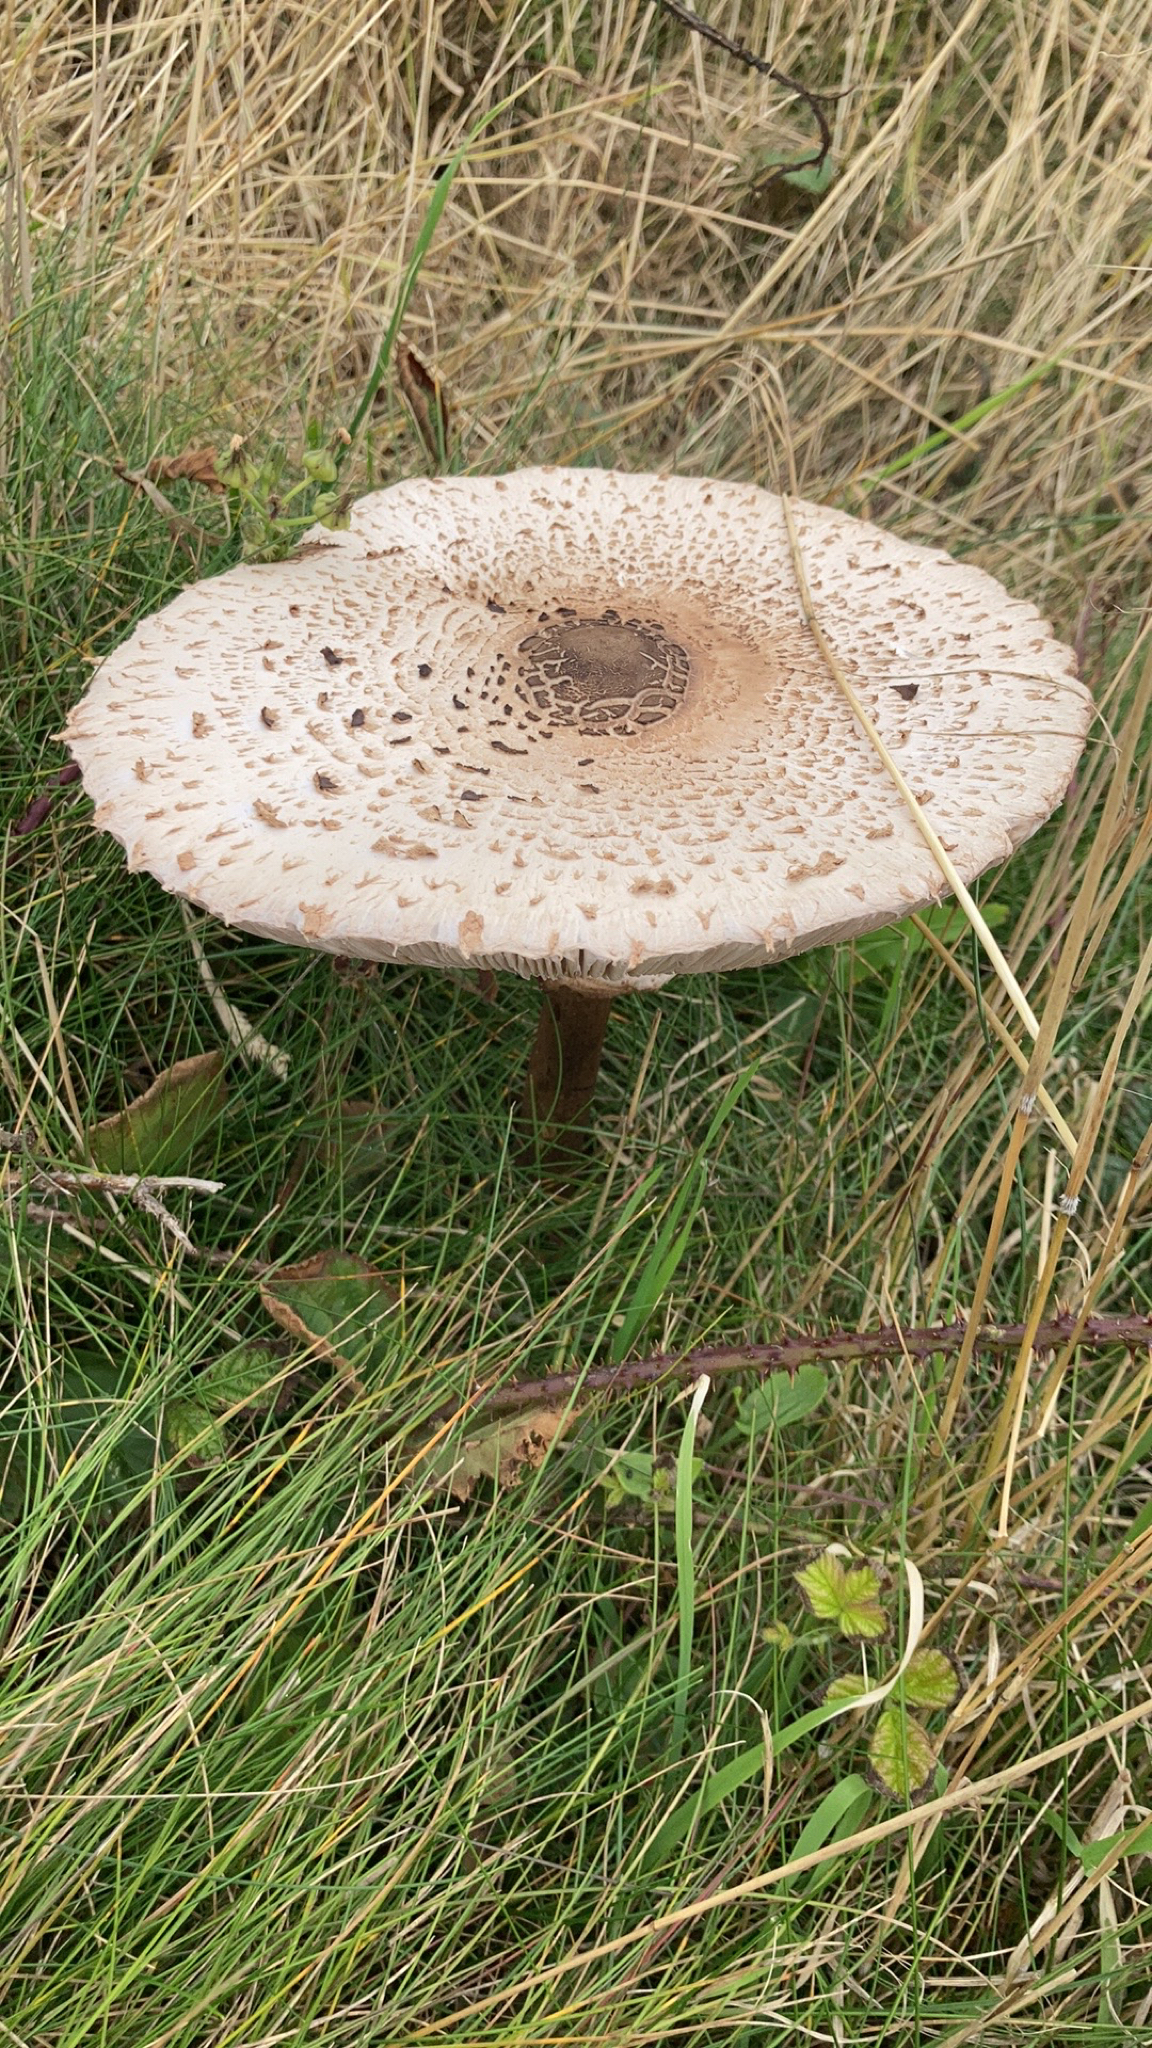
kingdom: Fungi
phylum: Basidiomycota
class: Agaricomycetes
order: Agaricales
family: Agaricaceae
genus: Macrolepiota
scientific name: Macrolepiota procera
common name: Parasol
